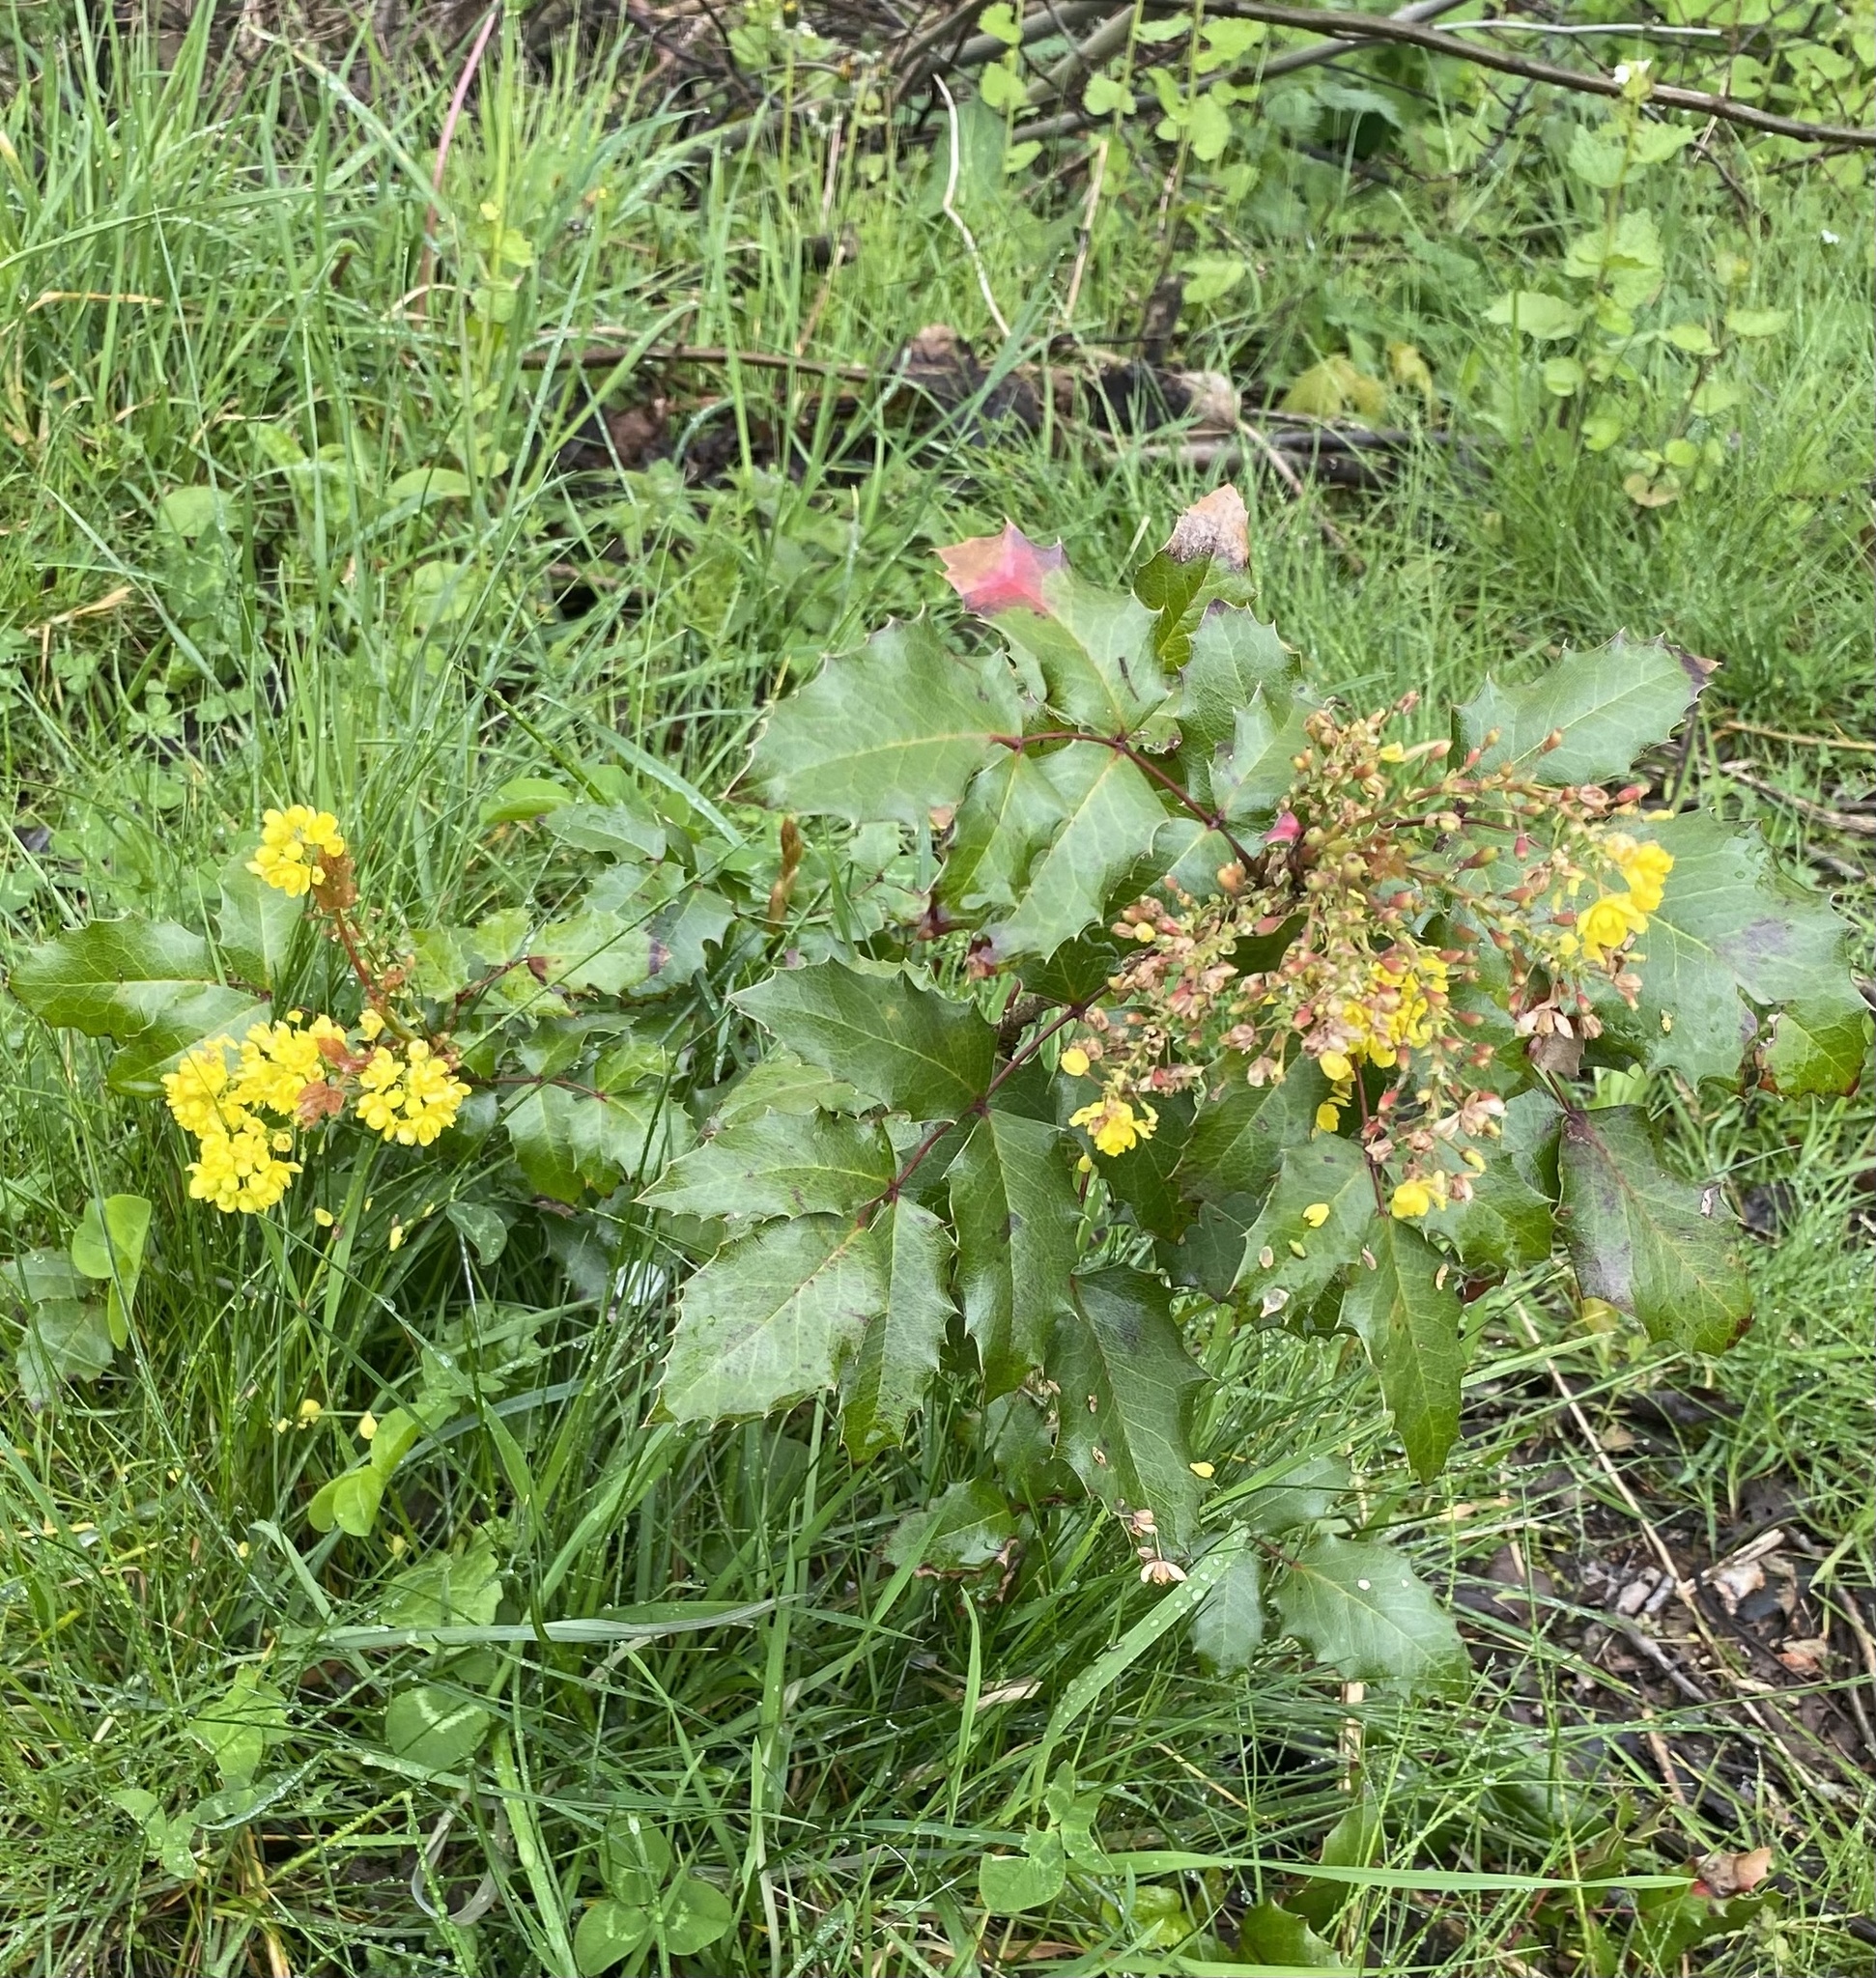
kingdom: Plantae
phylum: Tracheophyta
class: Magnoliopsida
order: Ranunculales
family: Berberidaceae
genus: Mahonia
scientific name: Mahonia aquifolium
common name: Oregon-grape
